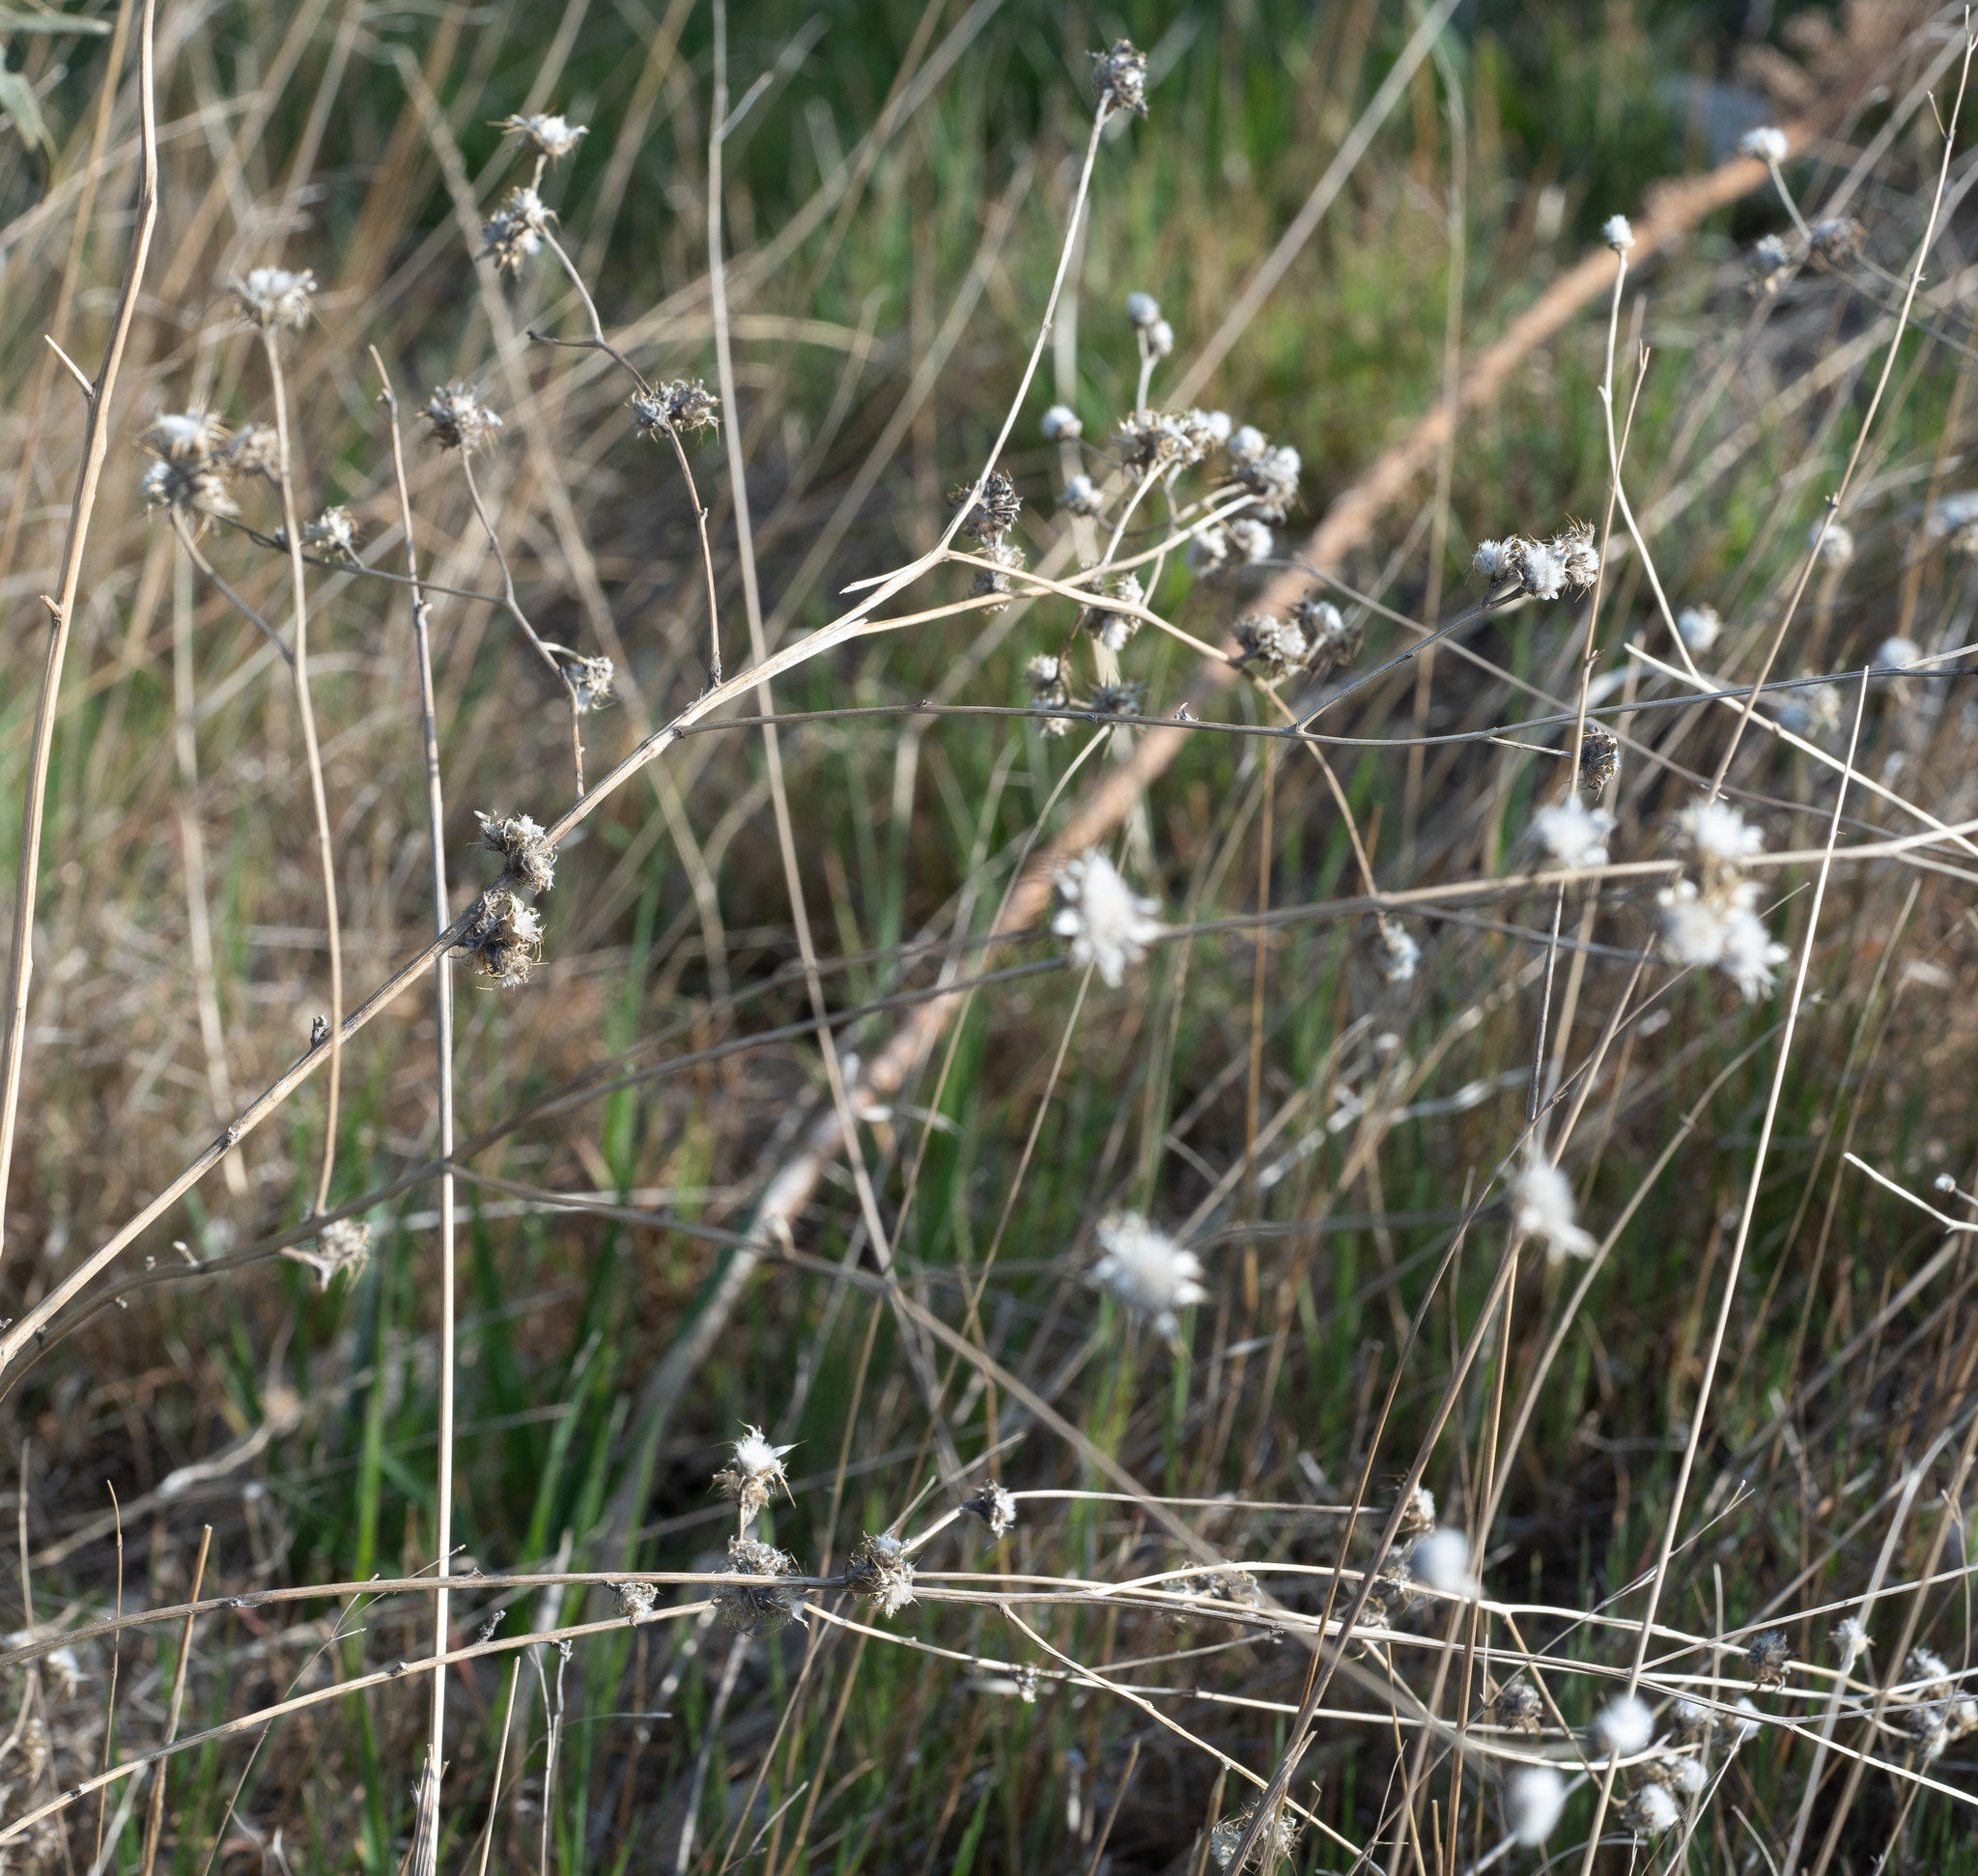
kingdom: Plantae
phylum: Tracheophyta
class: Magnoliopsida
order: Asterales
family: Asteraceae
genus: Centaurea
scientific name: Centaurea melitensis
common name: Maltese star-thistle
